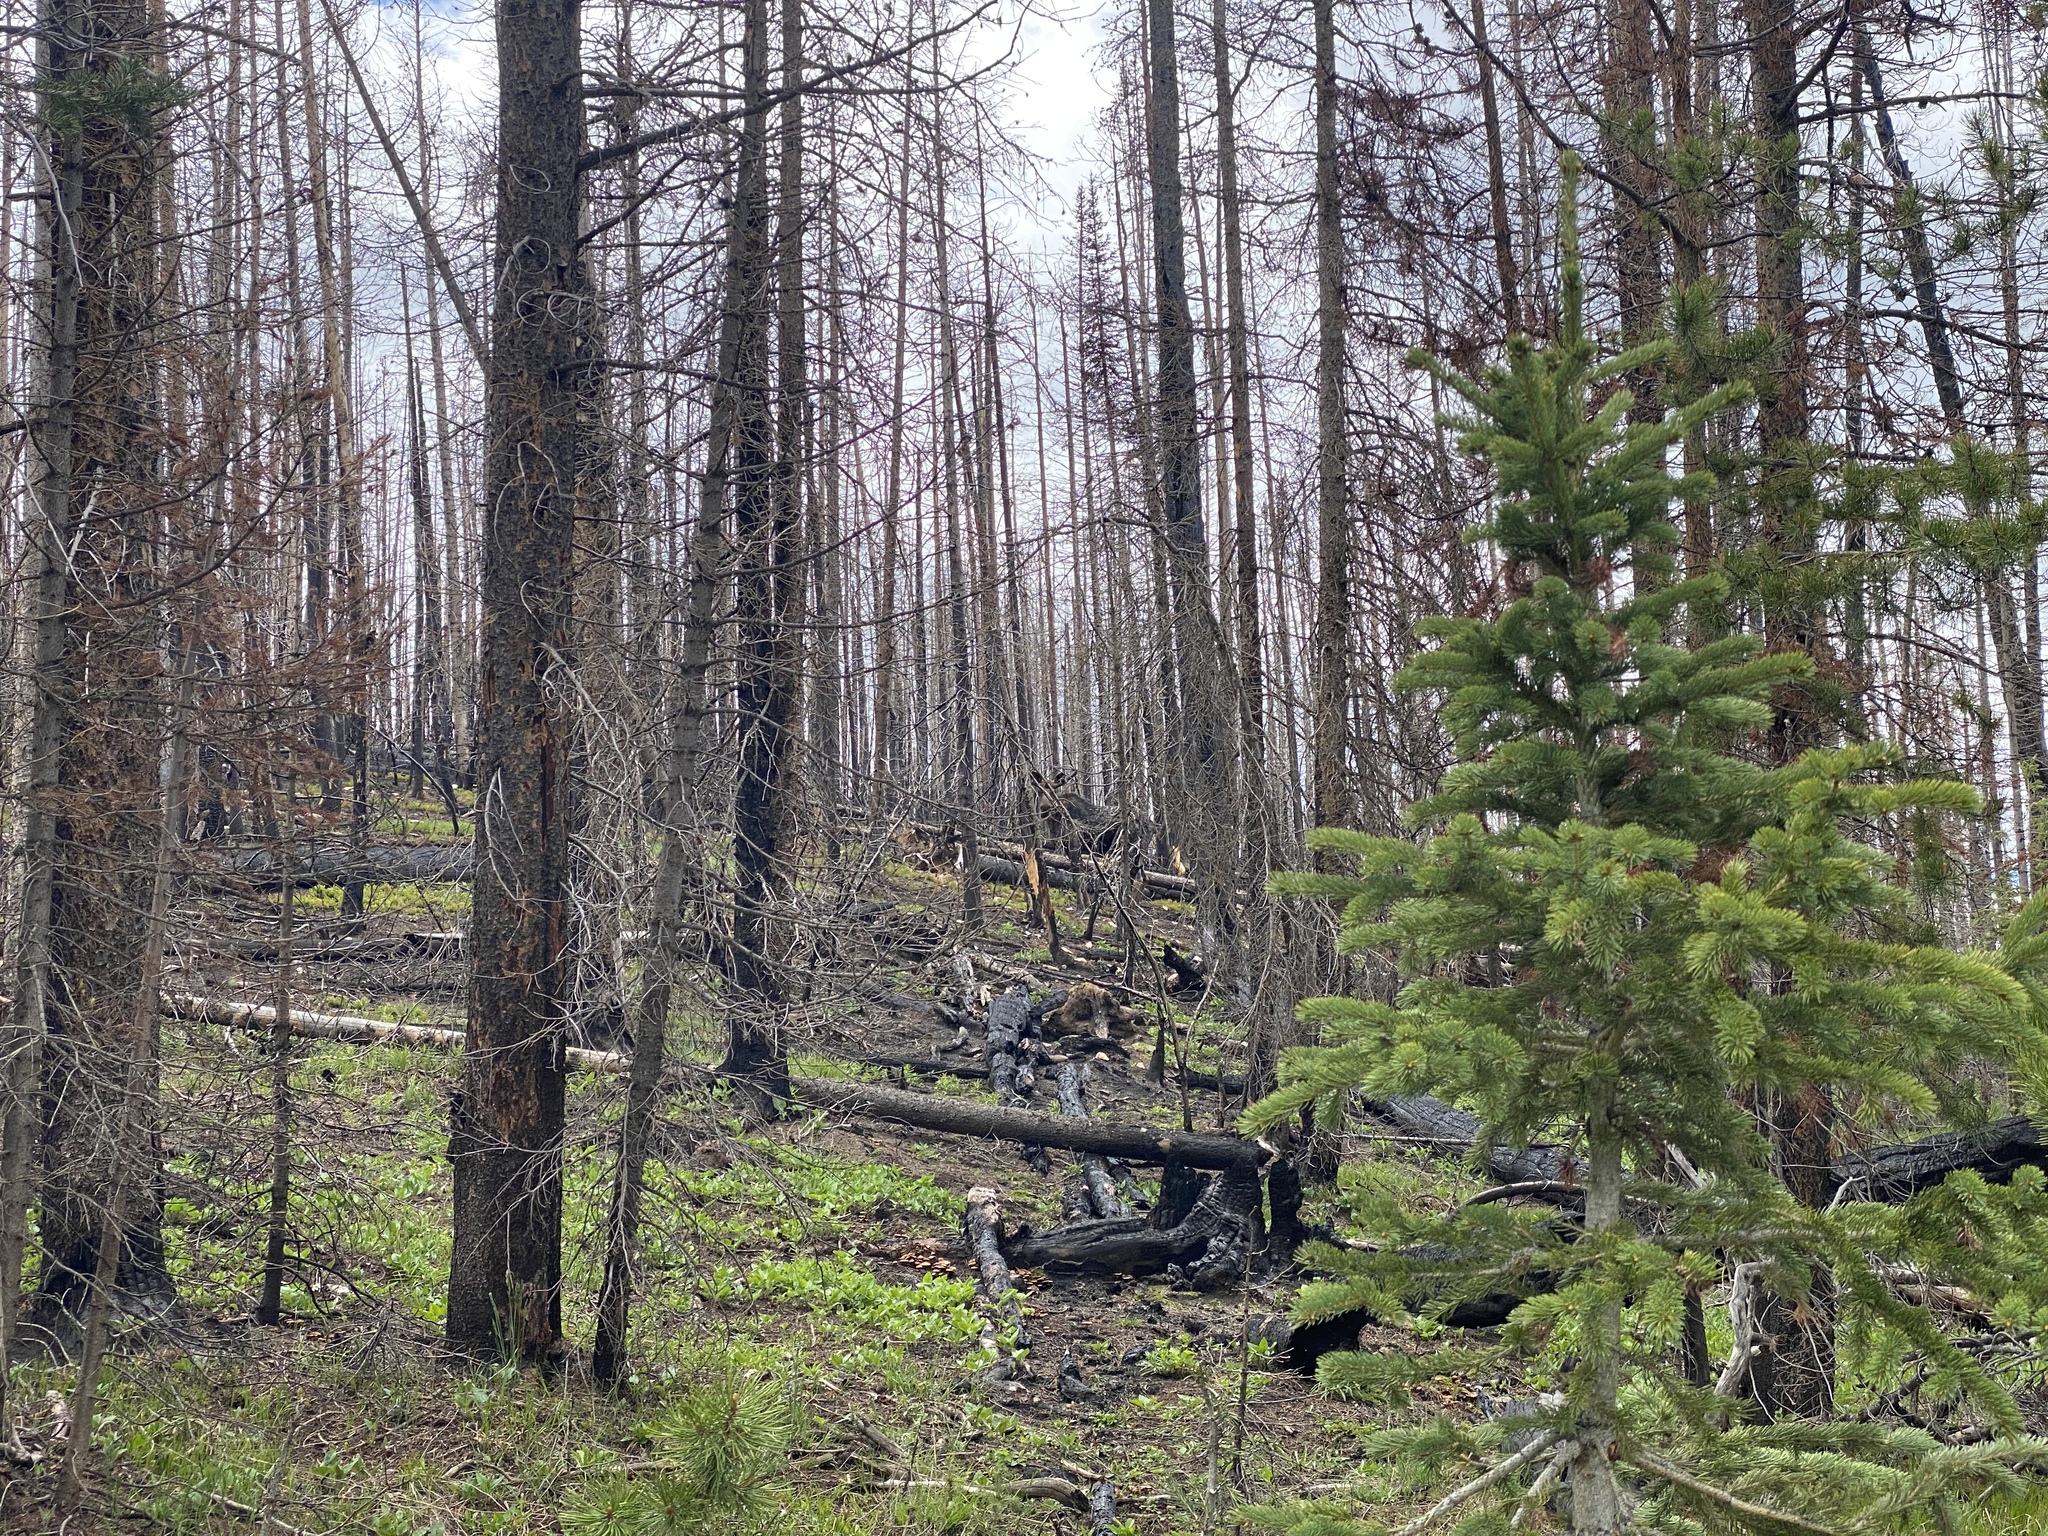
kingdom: Animalia
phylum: Chordata
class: Mammalia
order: Artiodactyla
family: Cervidae
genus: Alces
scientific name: Alces alces
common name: Moose
